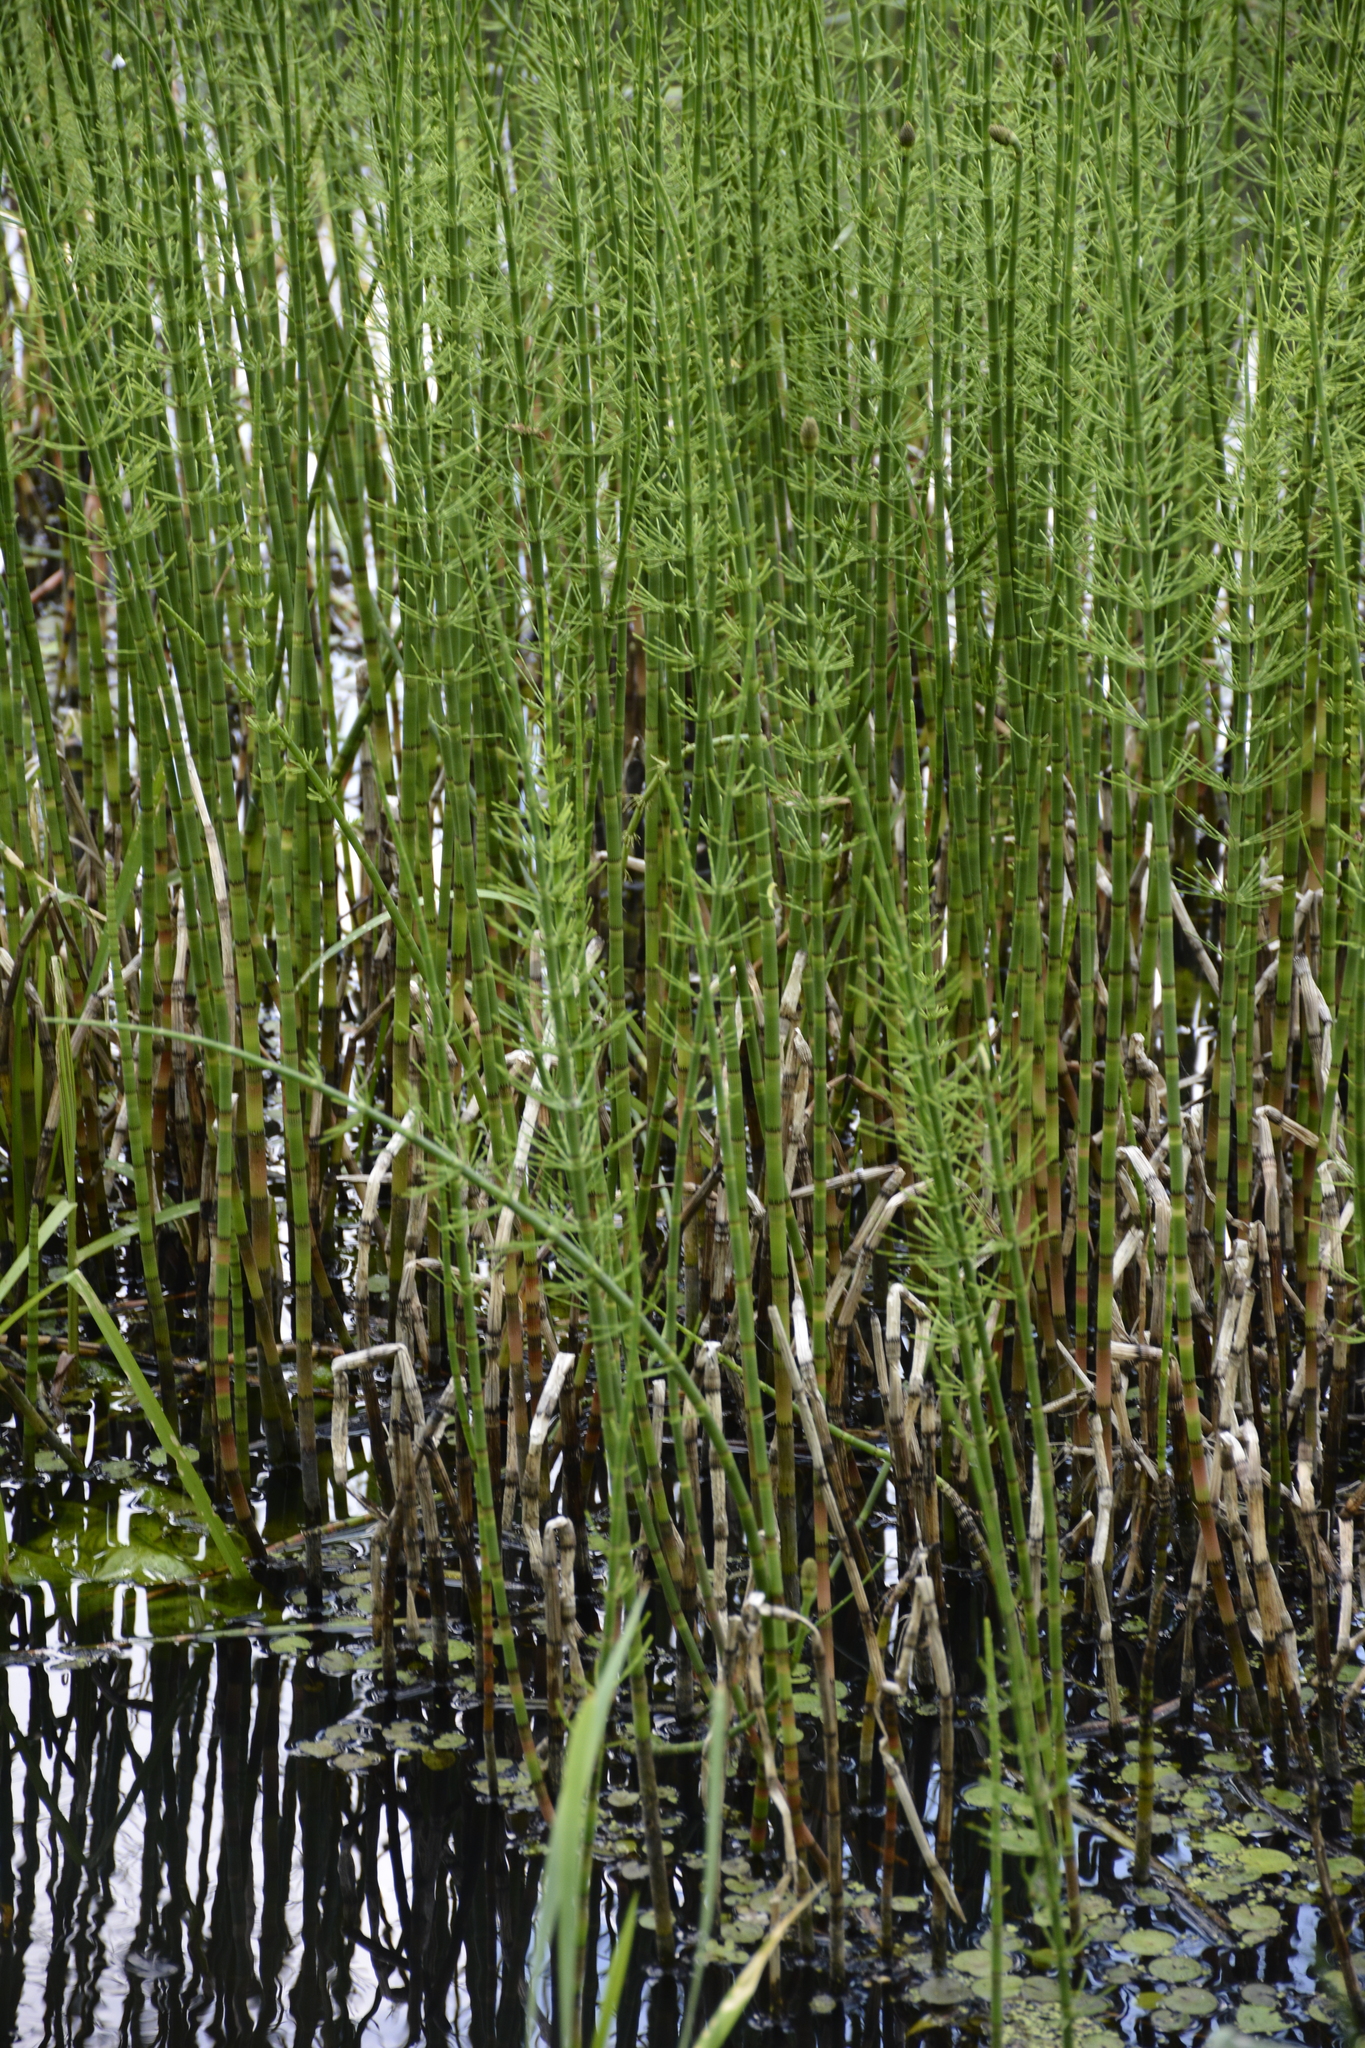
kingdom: Plantae
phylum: Tracheophyta
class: Polypodiopsida
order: Equisetales
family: Equisetaceae
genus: Equisetum
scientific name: Equisetum fluviatile
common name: Water horsetail
